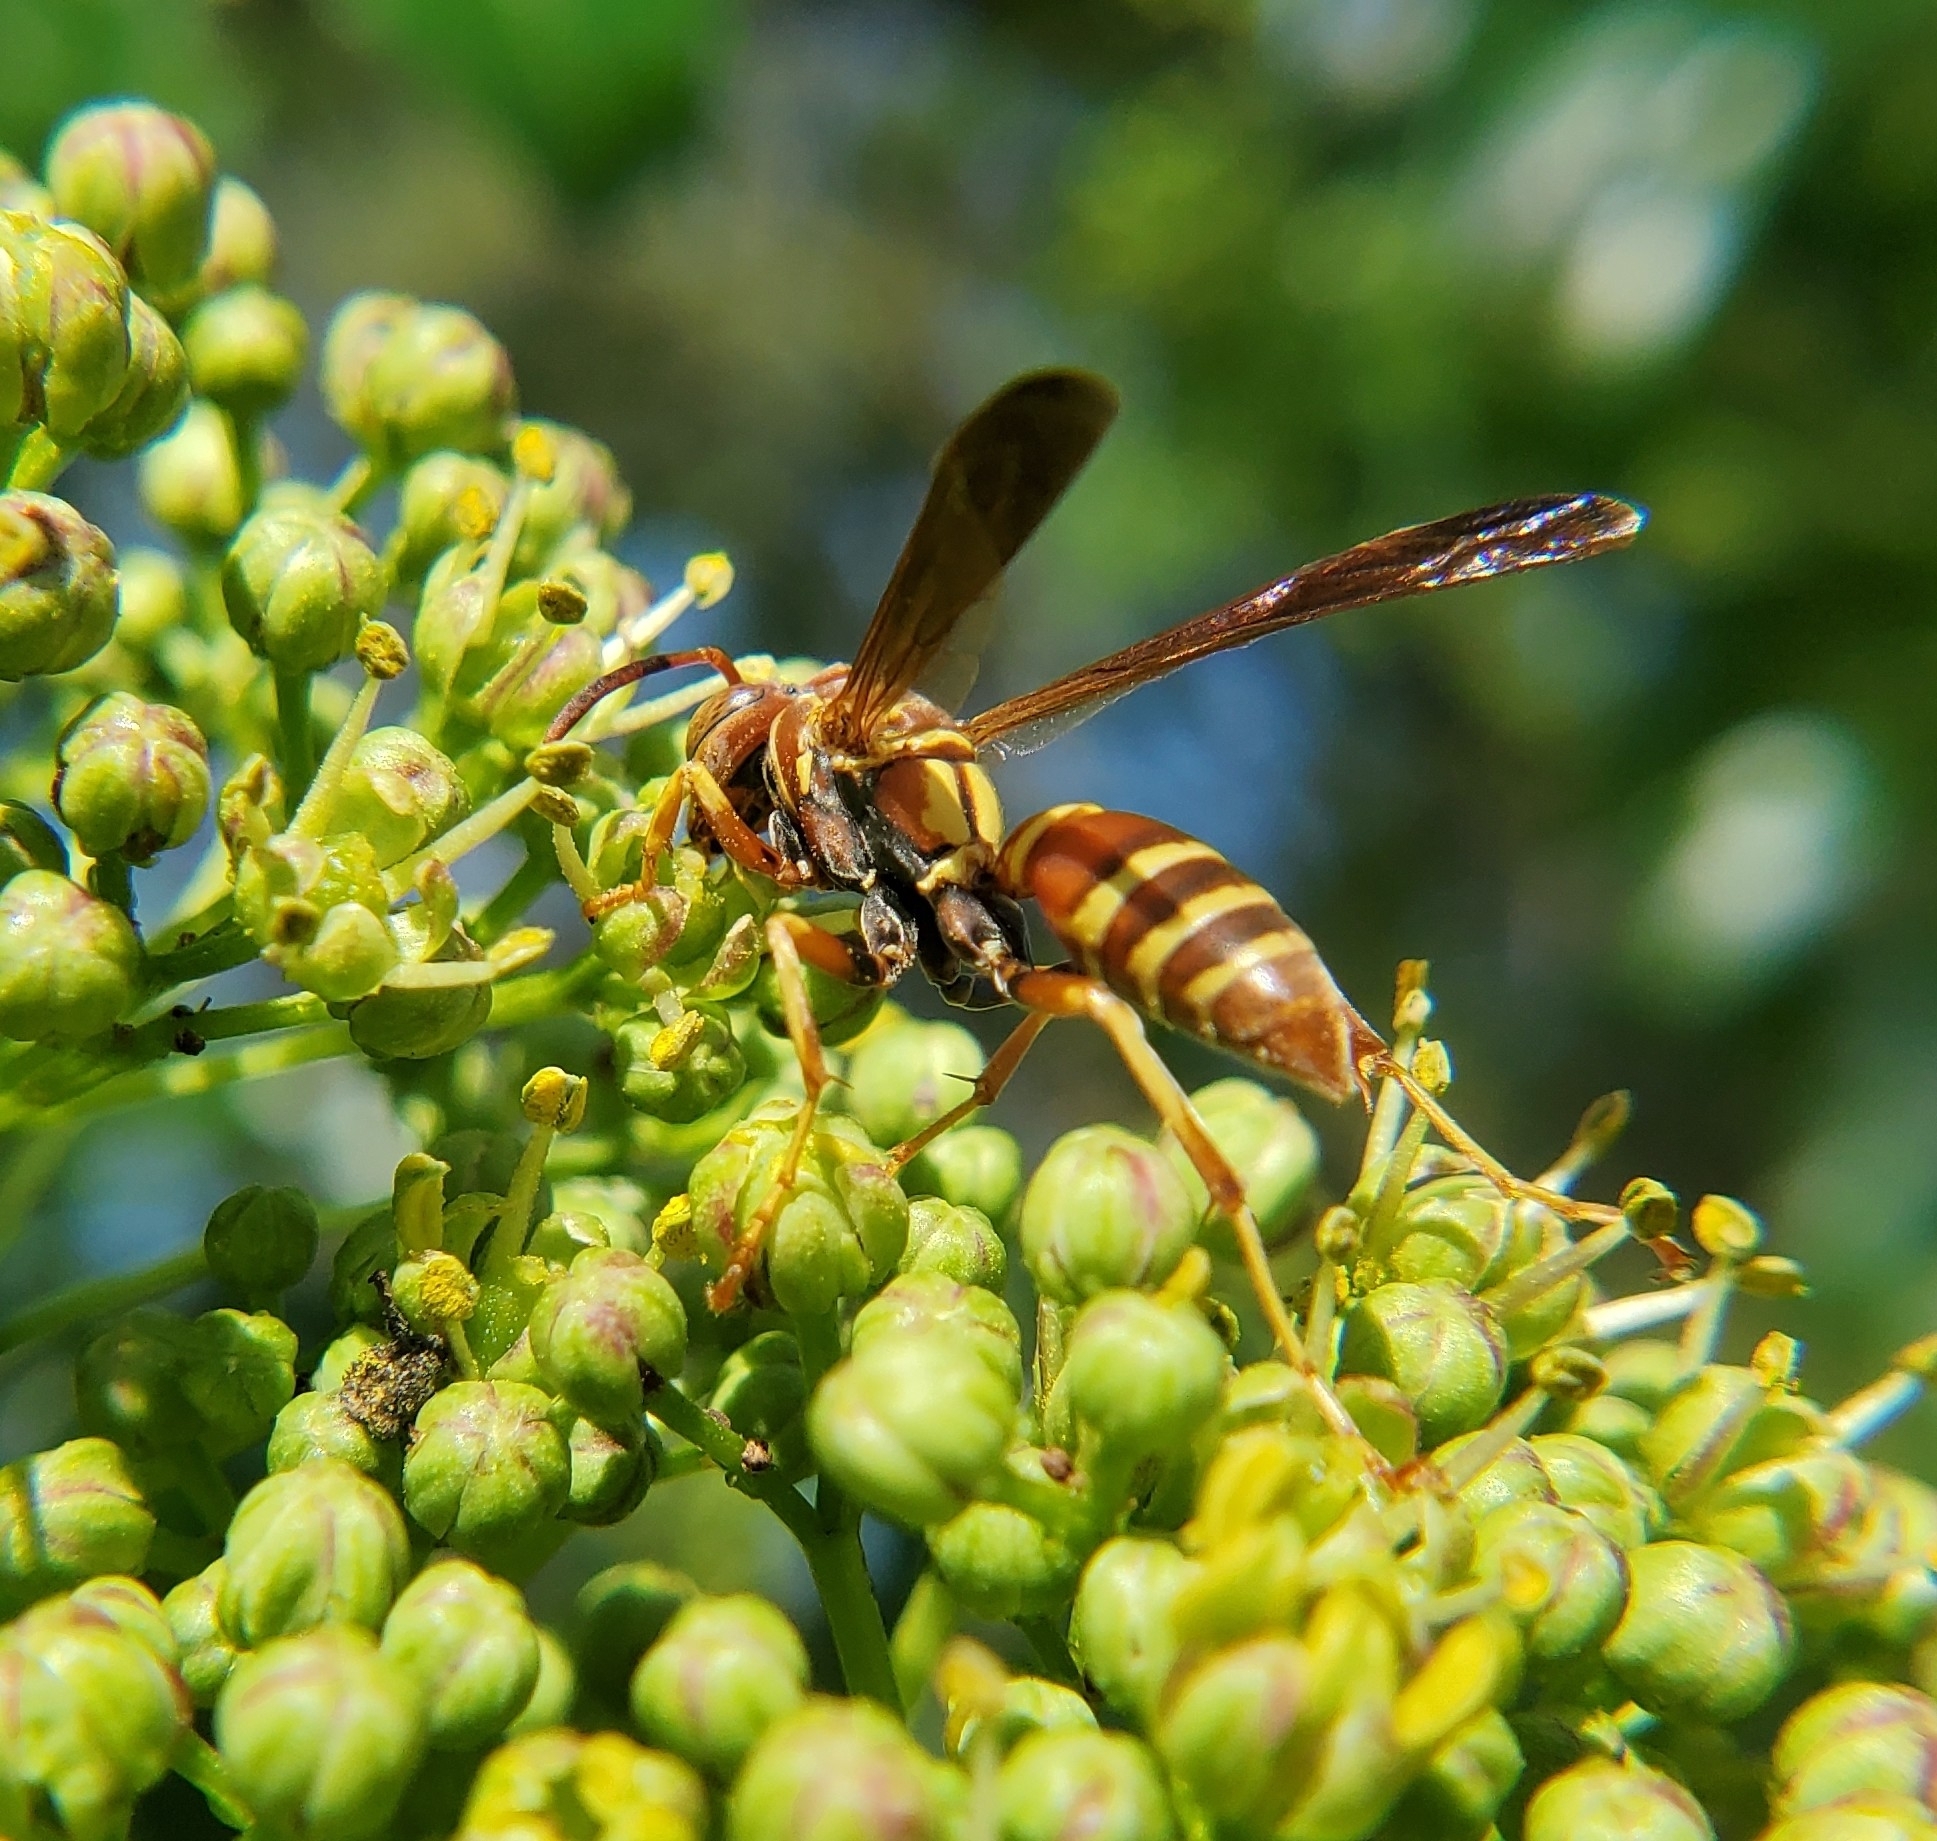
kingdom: Animalia
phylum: Arthropoda
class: Insecta
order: Hymenoptera
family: Eumenidae
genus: Polistes
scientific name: Polistes dorsalis
